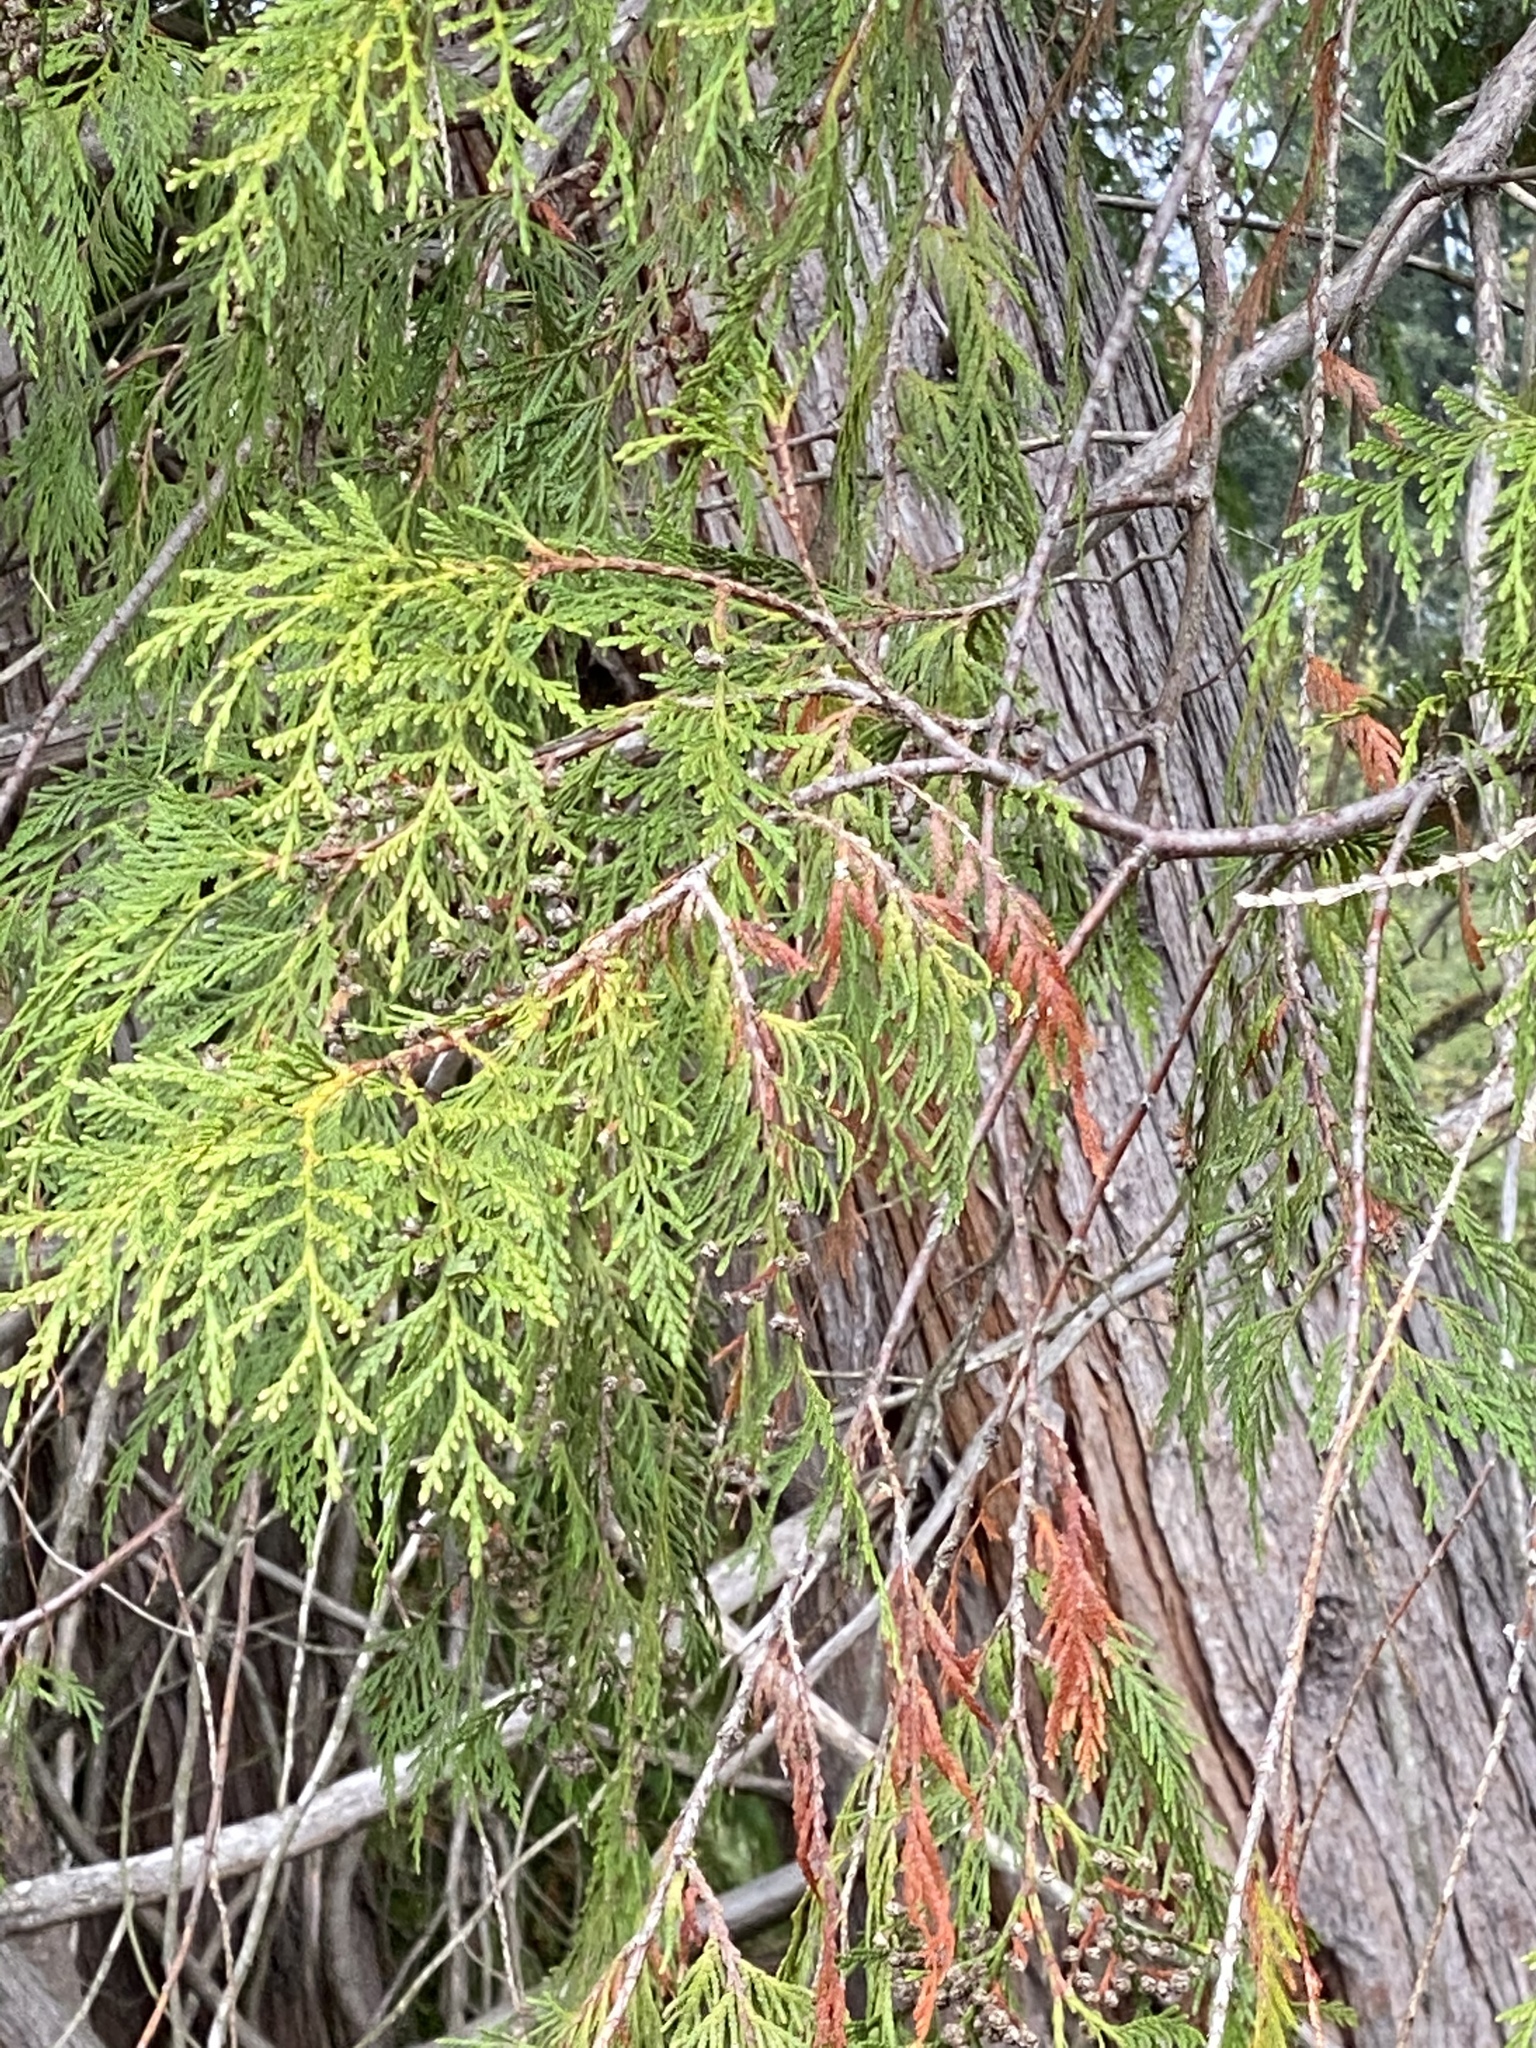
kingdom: Plantae
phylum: Tracheophyta
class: Pinopsida
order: Pinales
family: Cupressaceae
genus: Thuja
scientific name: Thuja plicata
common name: Western red-cedar
